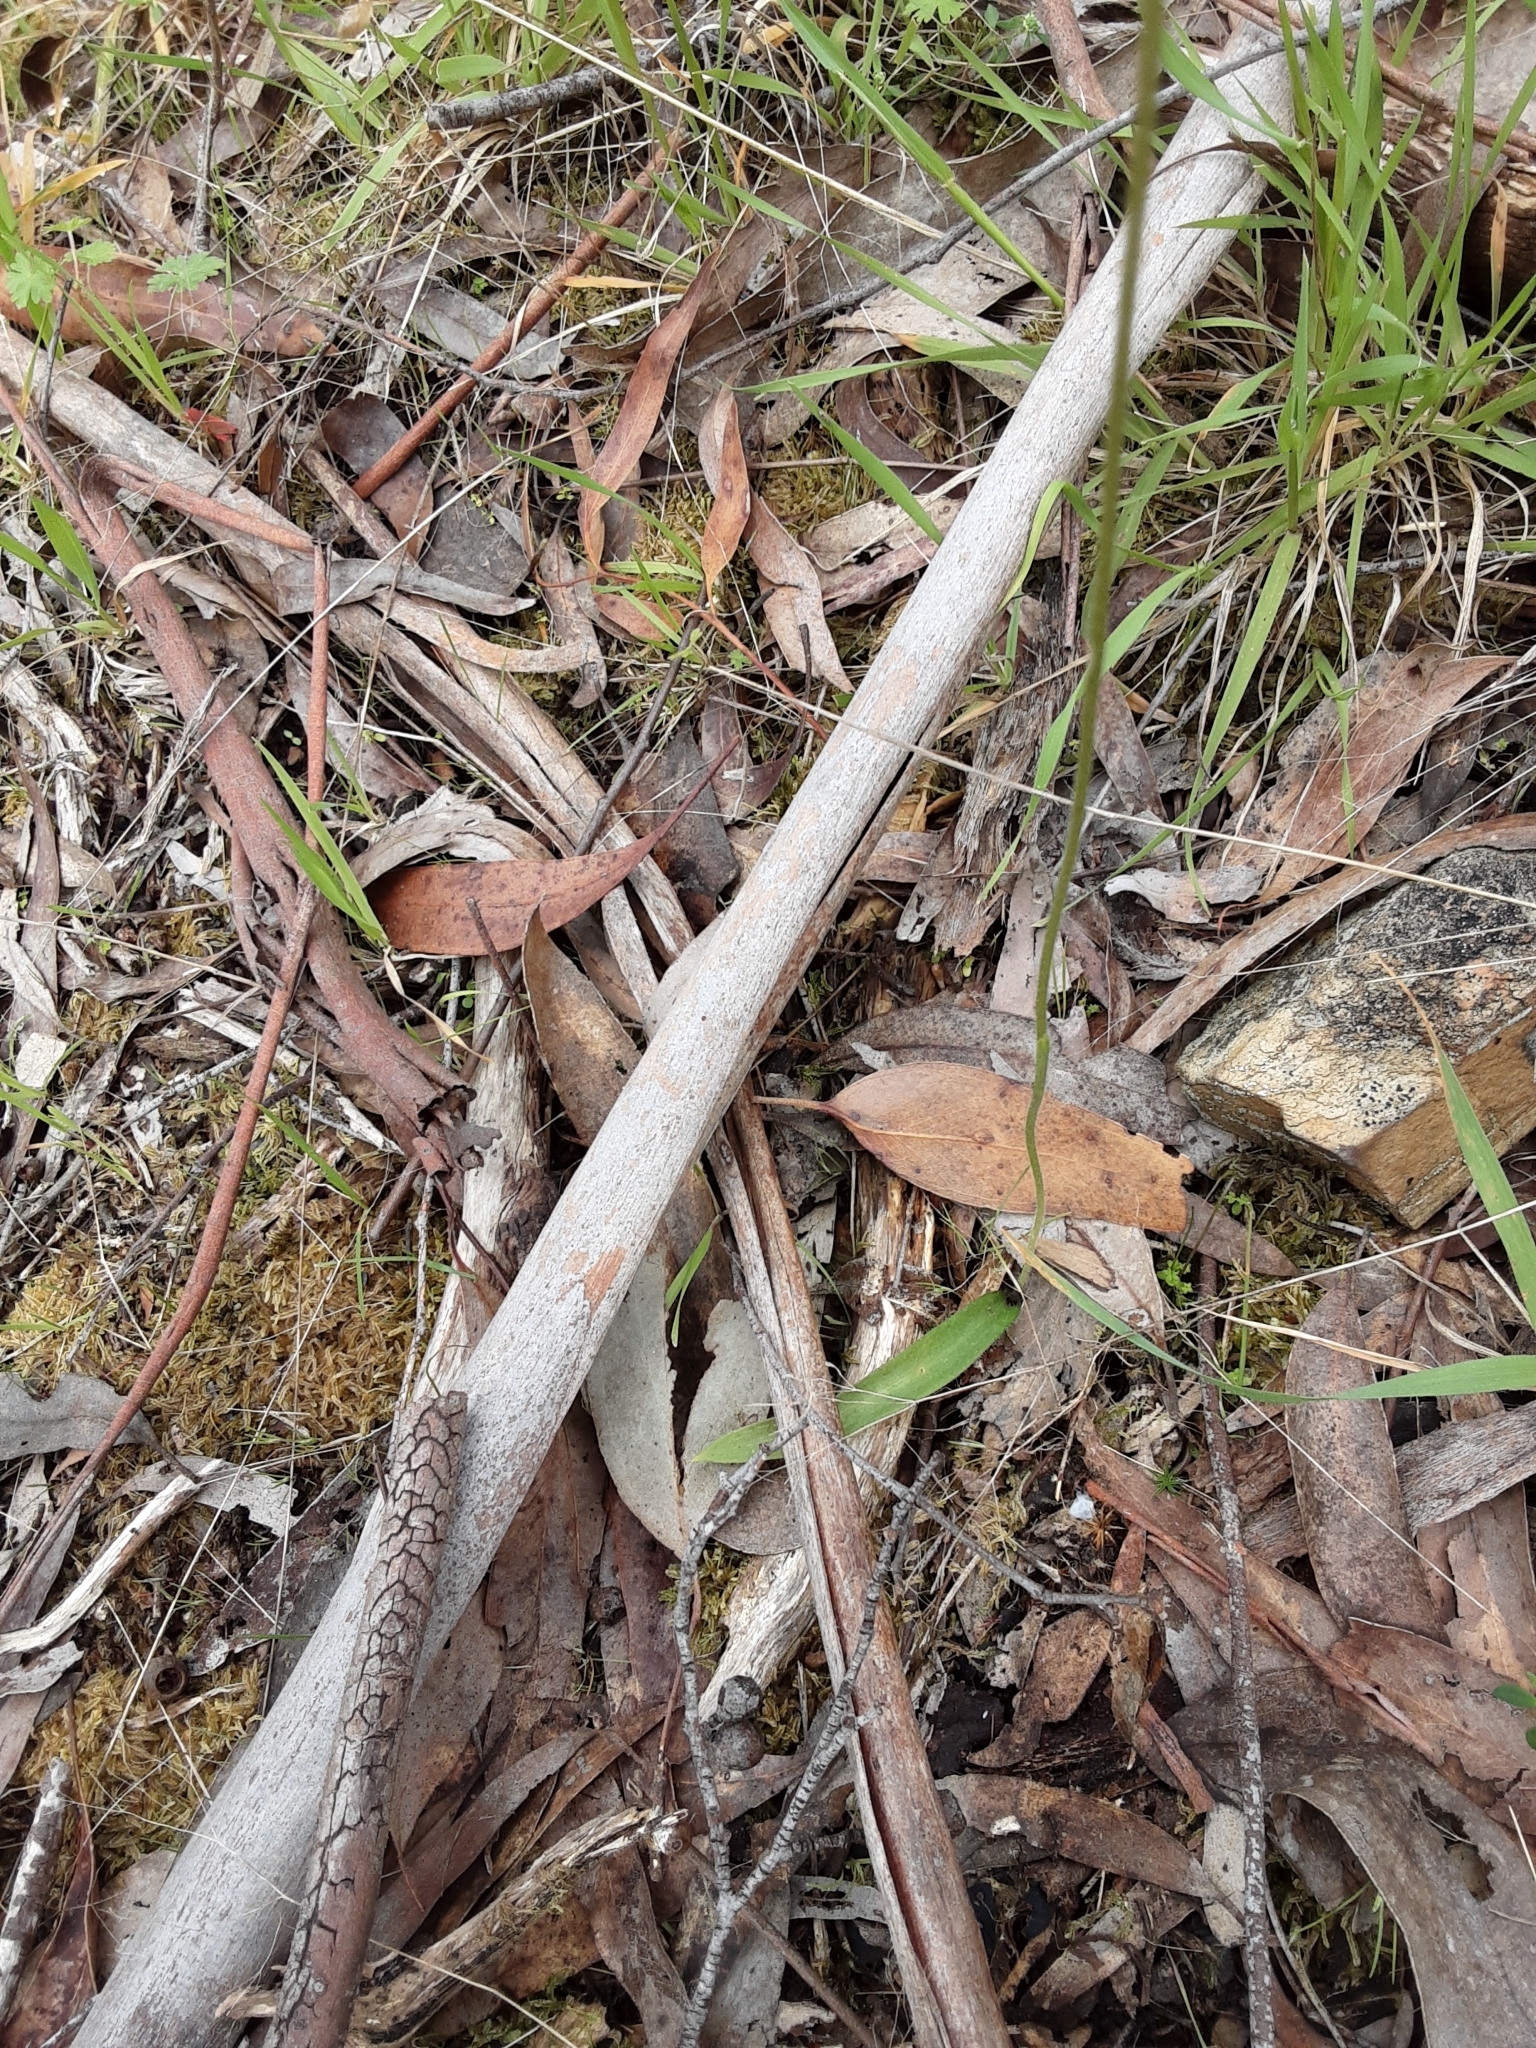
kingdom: Plantae
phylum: Tracheophyta
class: Liliopsida
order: Asparagales
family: Orchidaceae
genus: Caladenia
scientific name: Caladenia major
